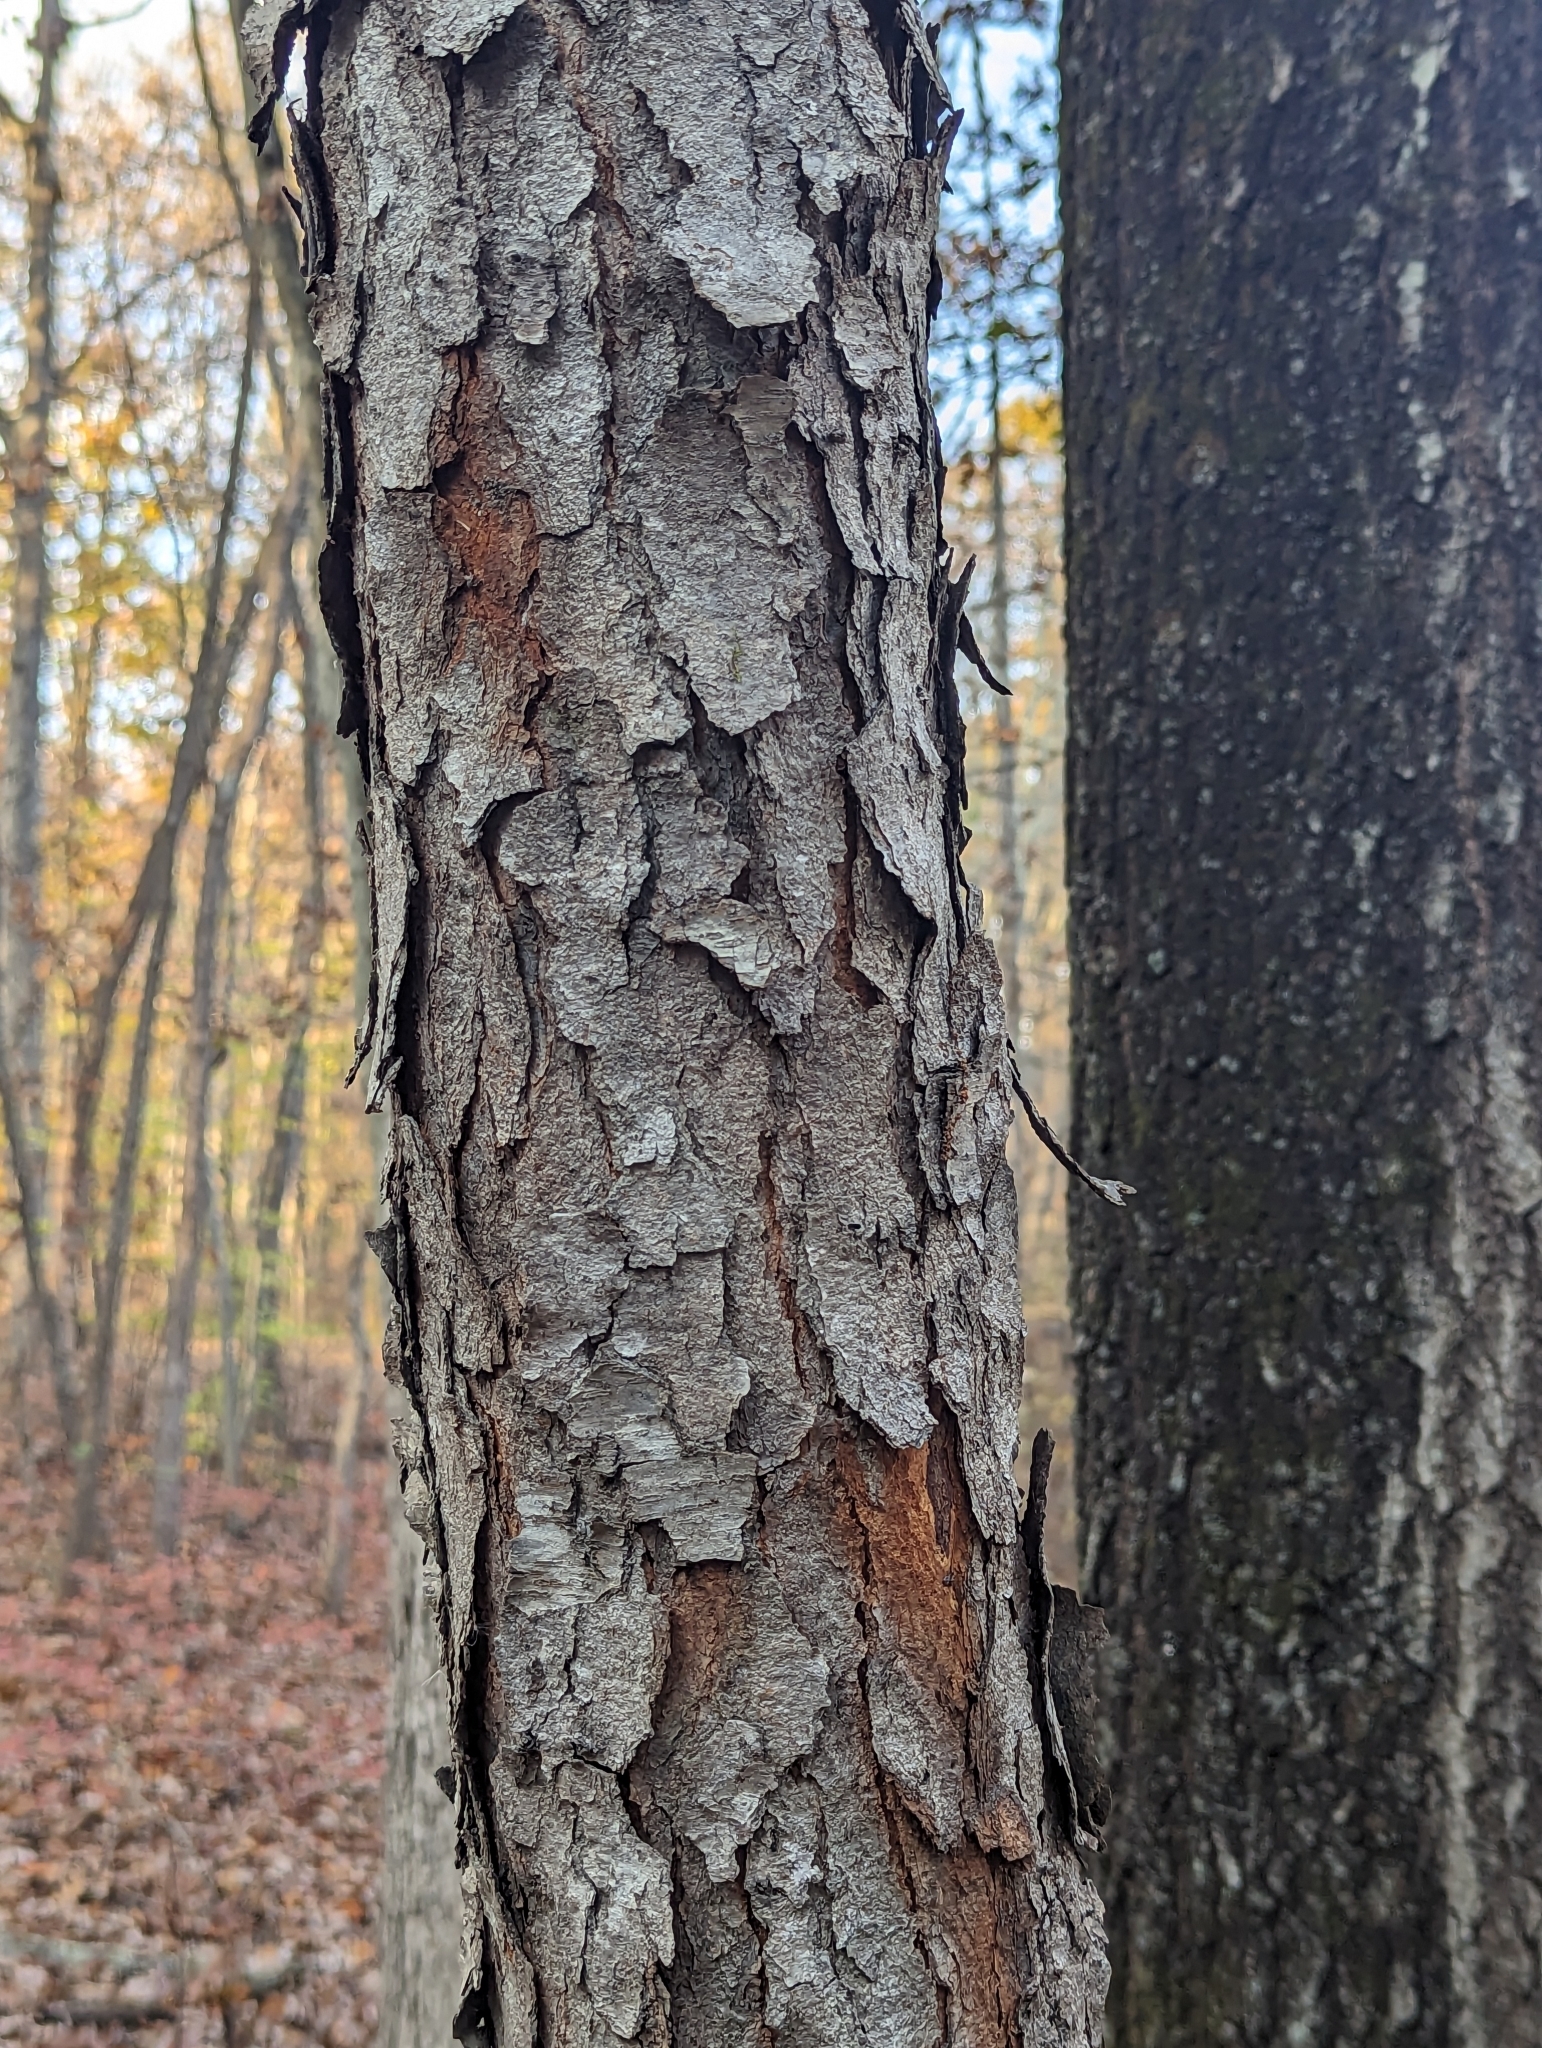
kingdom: Plantae
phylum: Tracheophyta
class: Magnoliopsida
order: Rosales
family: Rosaceae
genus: Prunus
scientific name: Prunus serotina
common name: Black cherry
